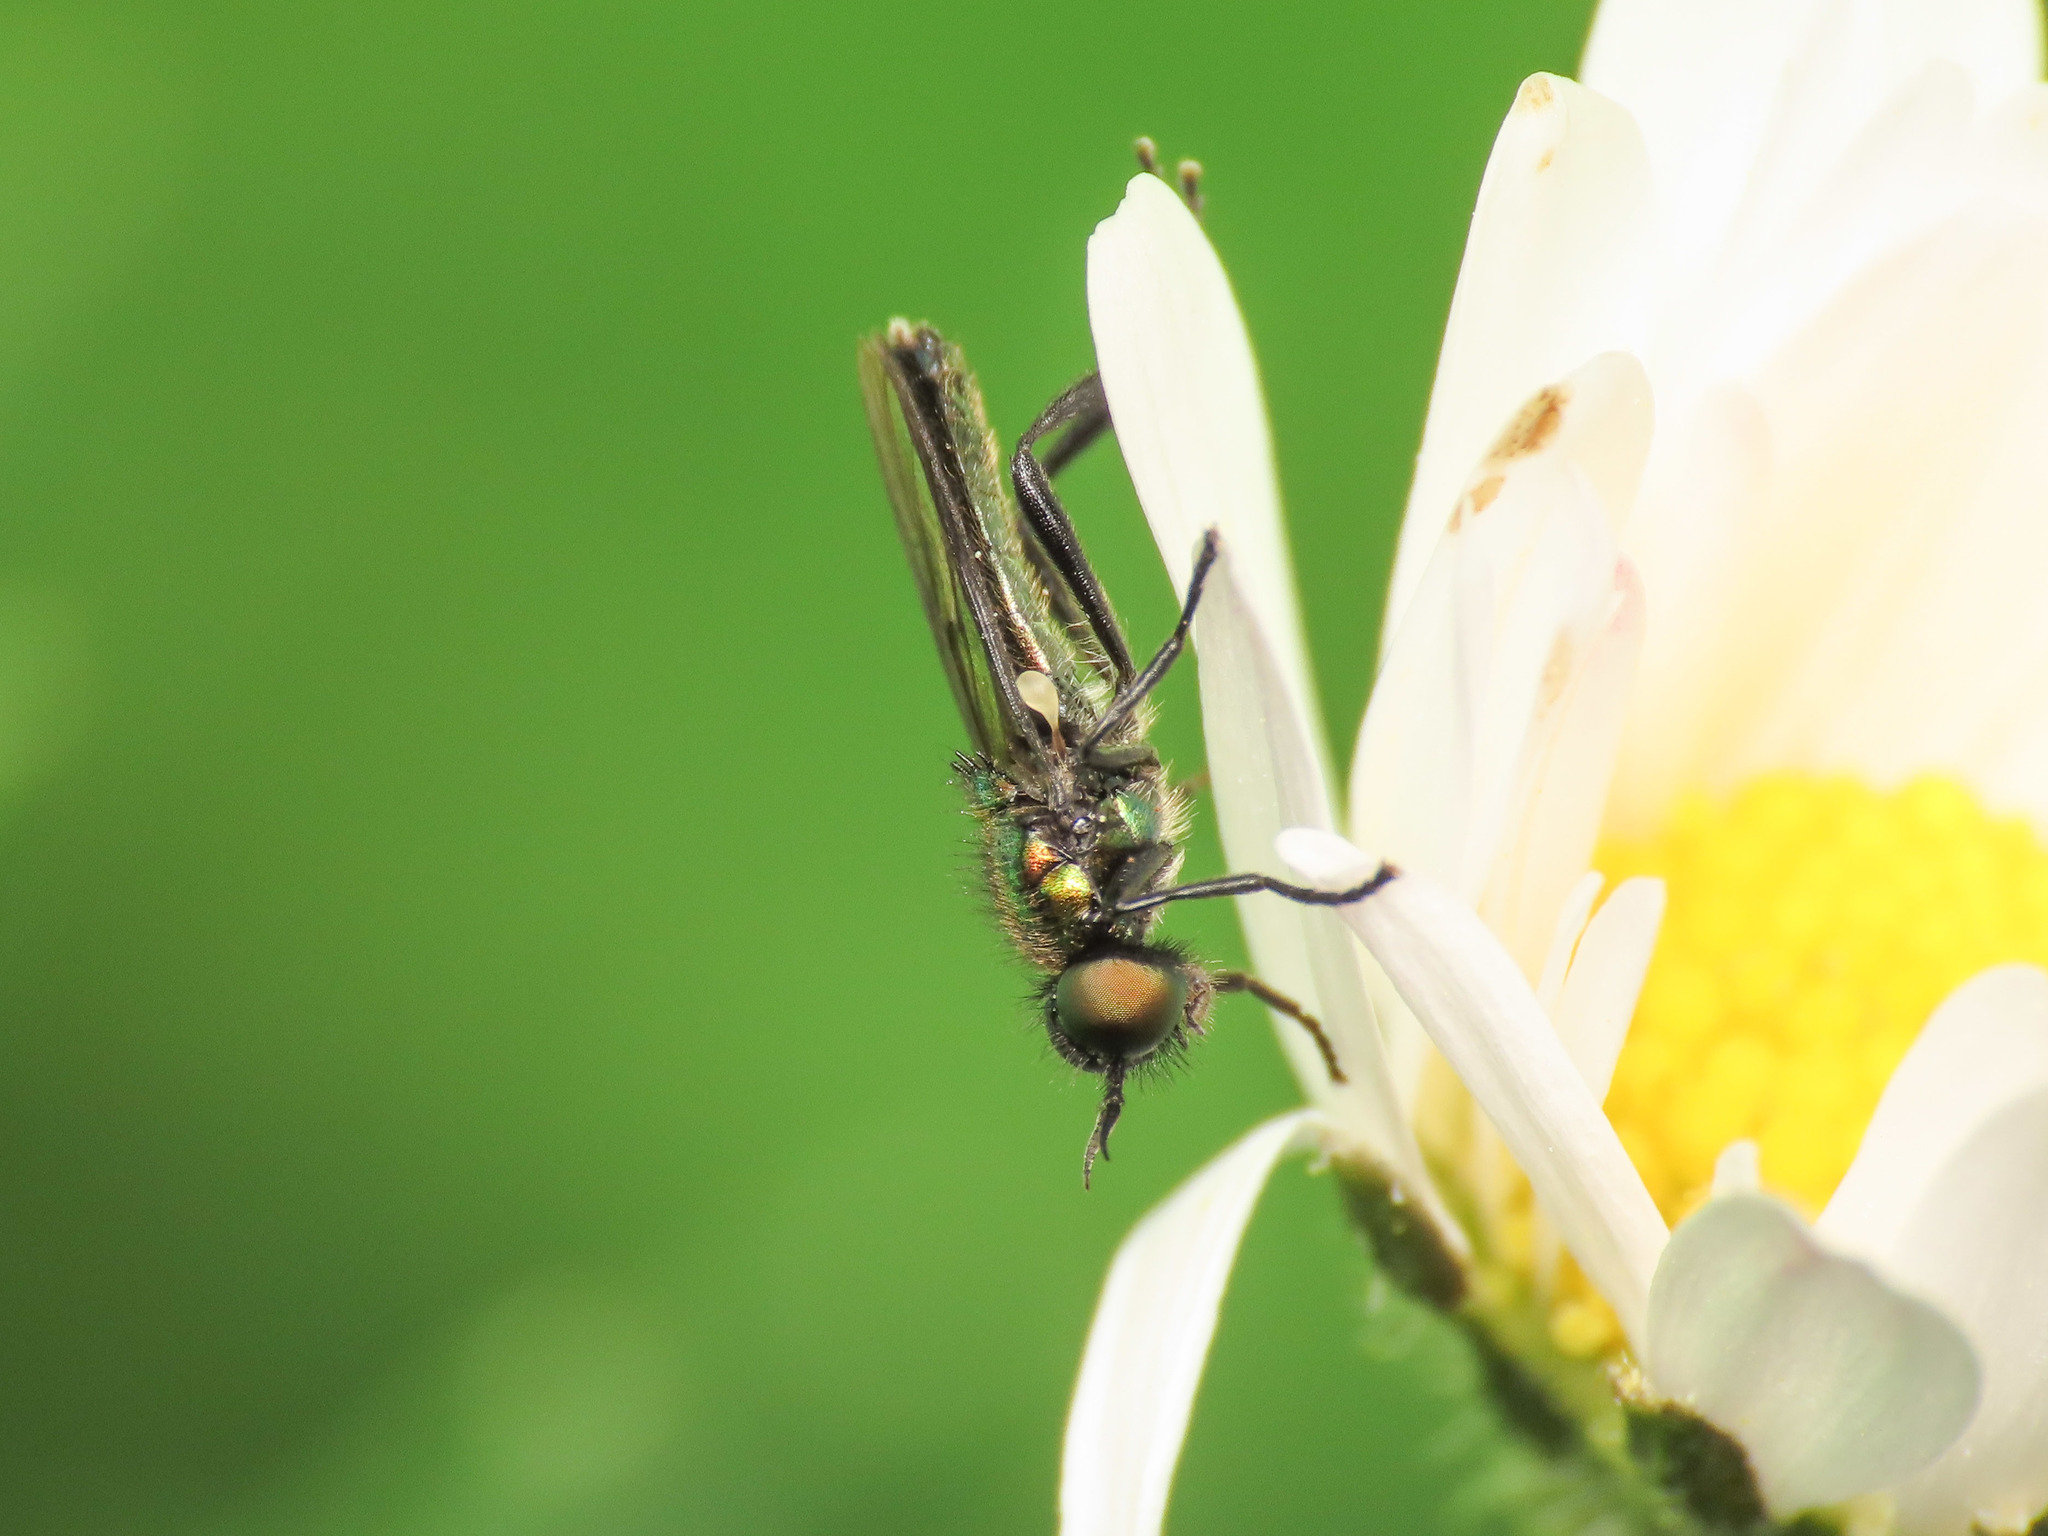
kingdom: Animalia
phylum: Arthropoda
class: Insecta
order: Diptera
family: Stratiomyidae
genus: Actina
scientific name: Actina chalybea
